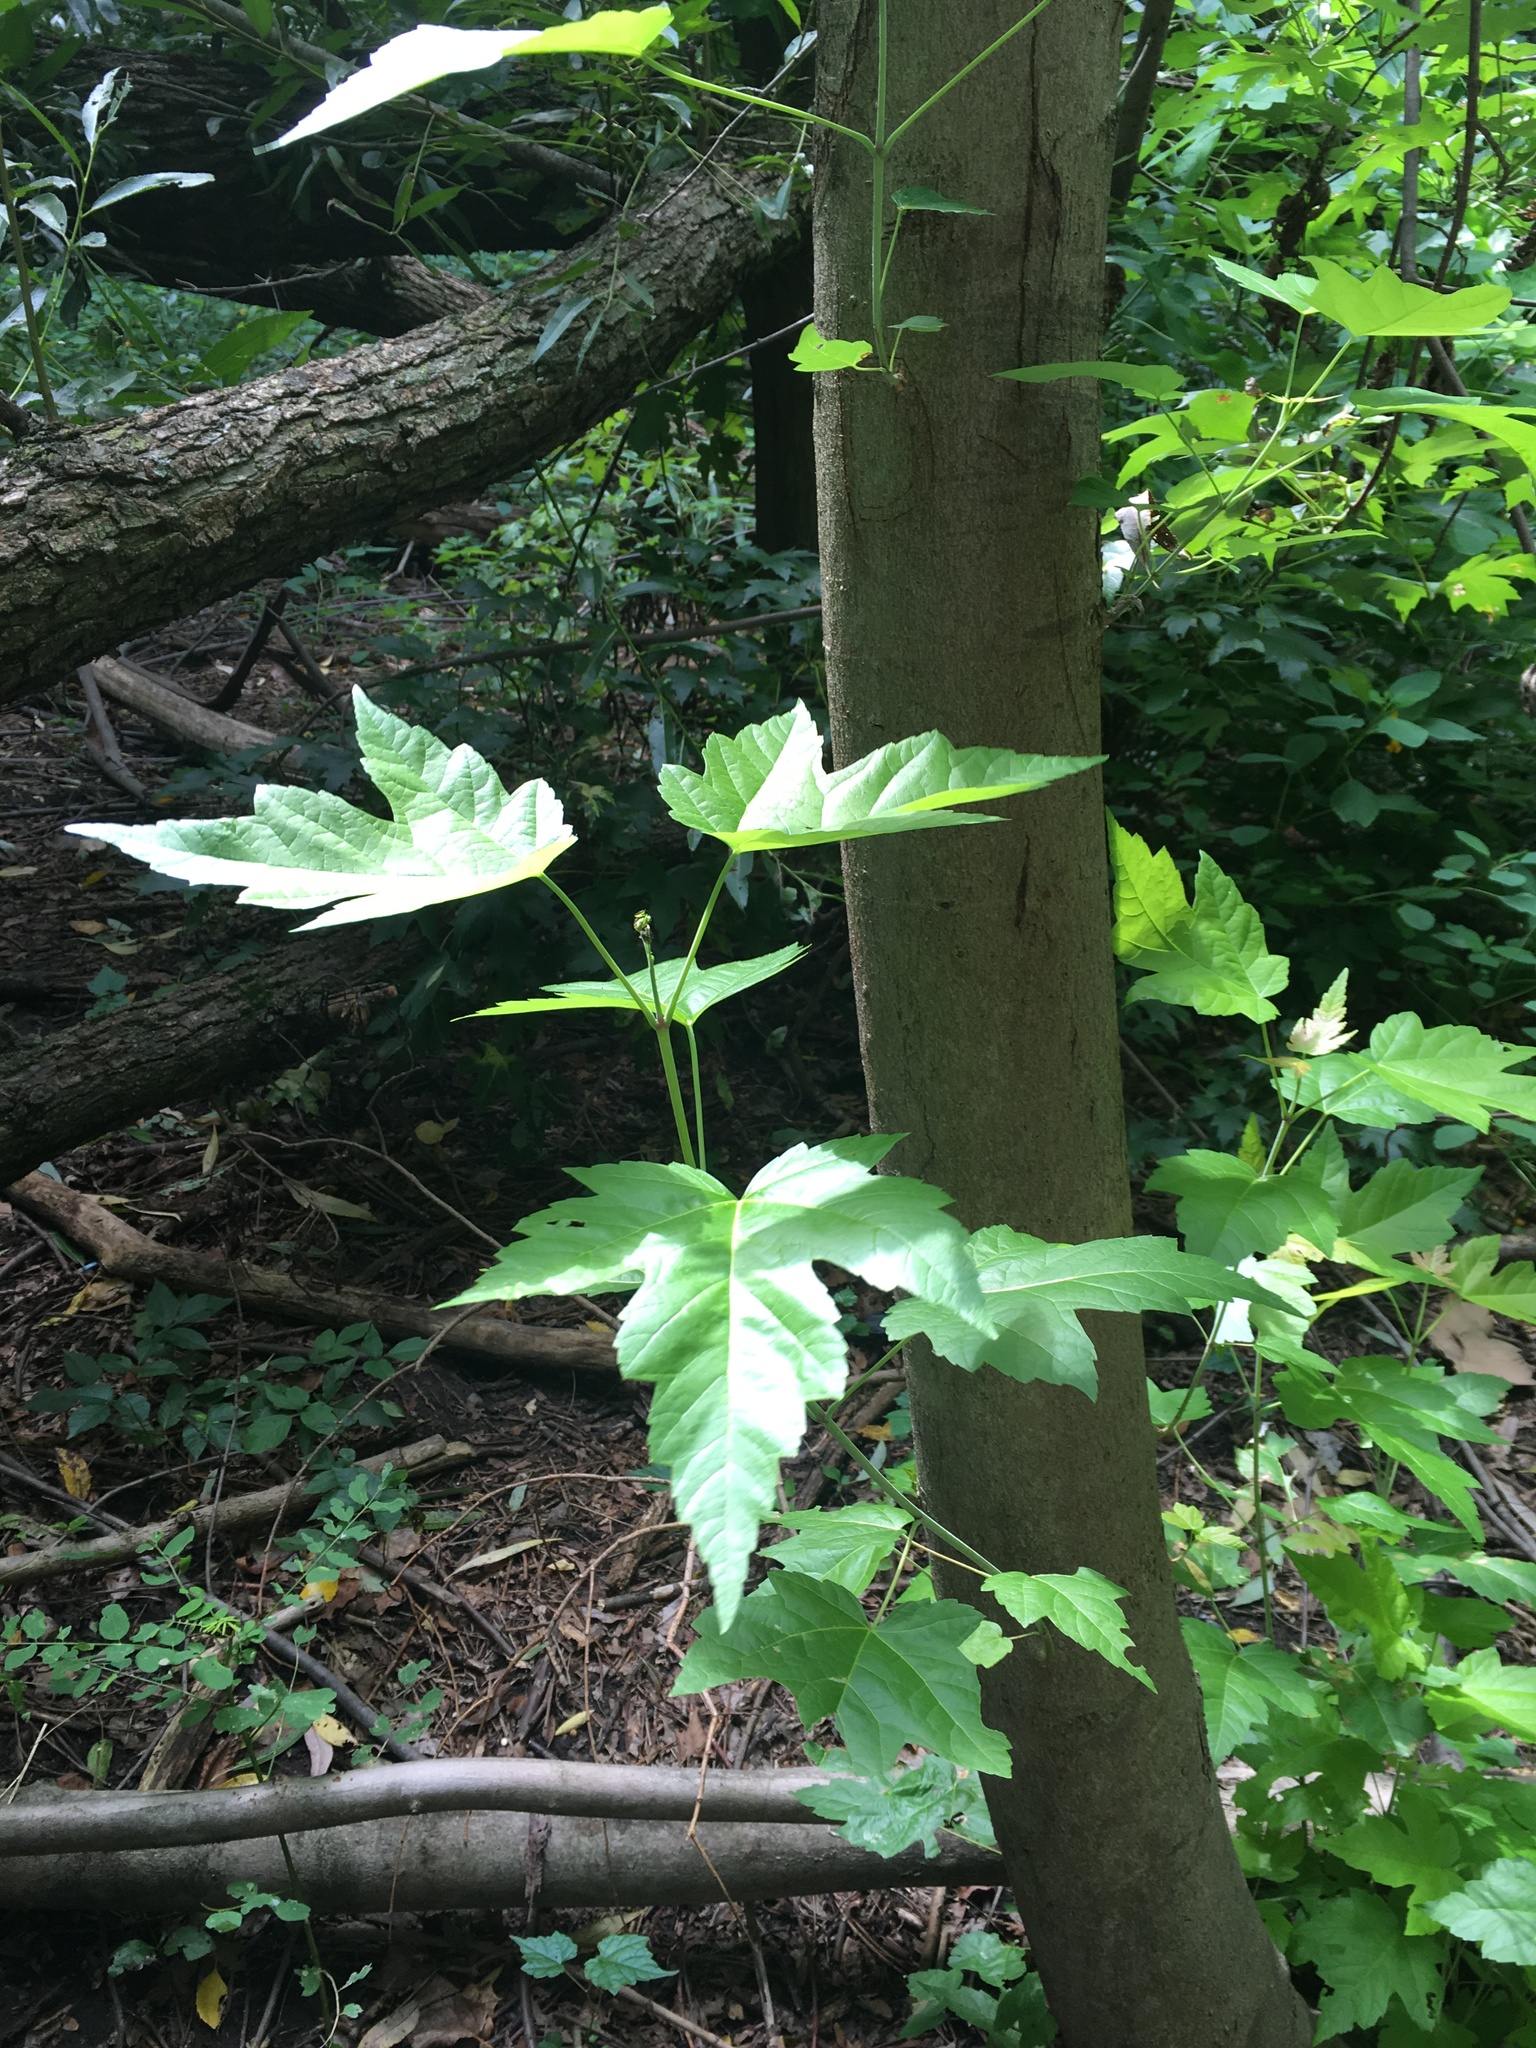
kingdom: Plantae
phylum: Tracheophyta
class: Magnoliopsida
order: Sapindales
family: Sapindaceae
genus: Acer
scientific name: Acer rubrum
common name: Red maple
